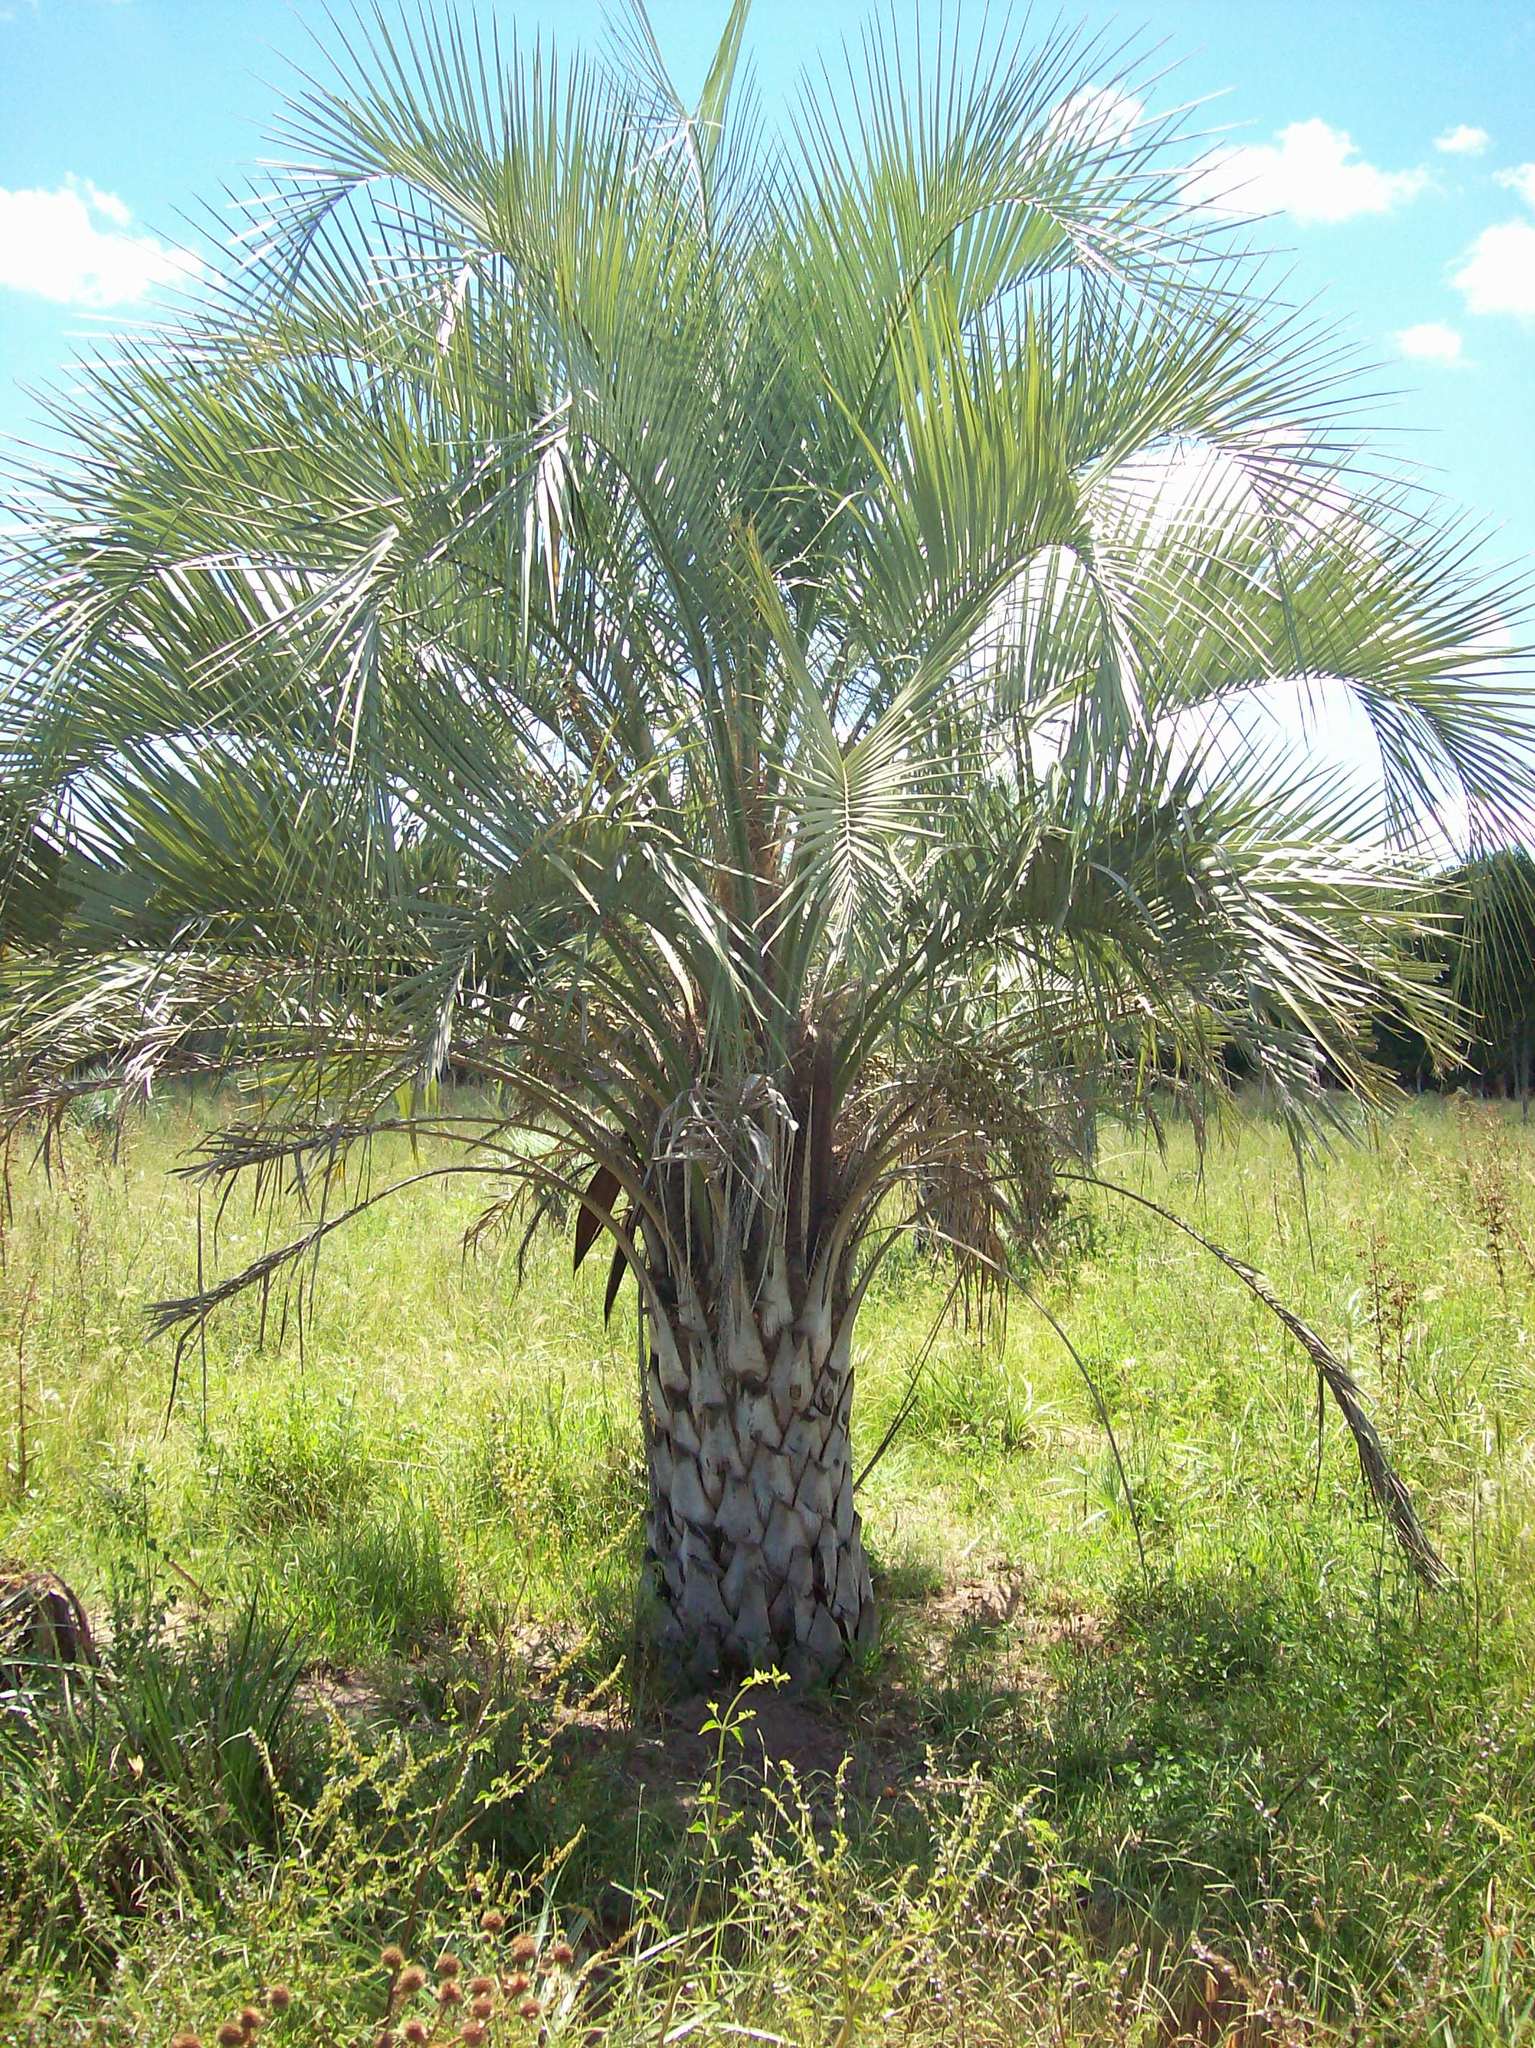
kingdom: Plantae
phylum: Tracheophyta
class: Liliopsida
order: Arecales
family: Arecaceae
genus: Butia
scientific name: Butia yatay
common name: Yatay palm
